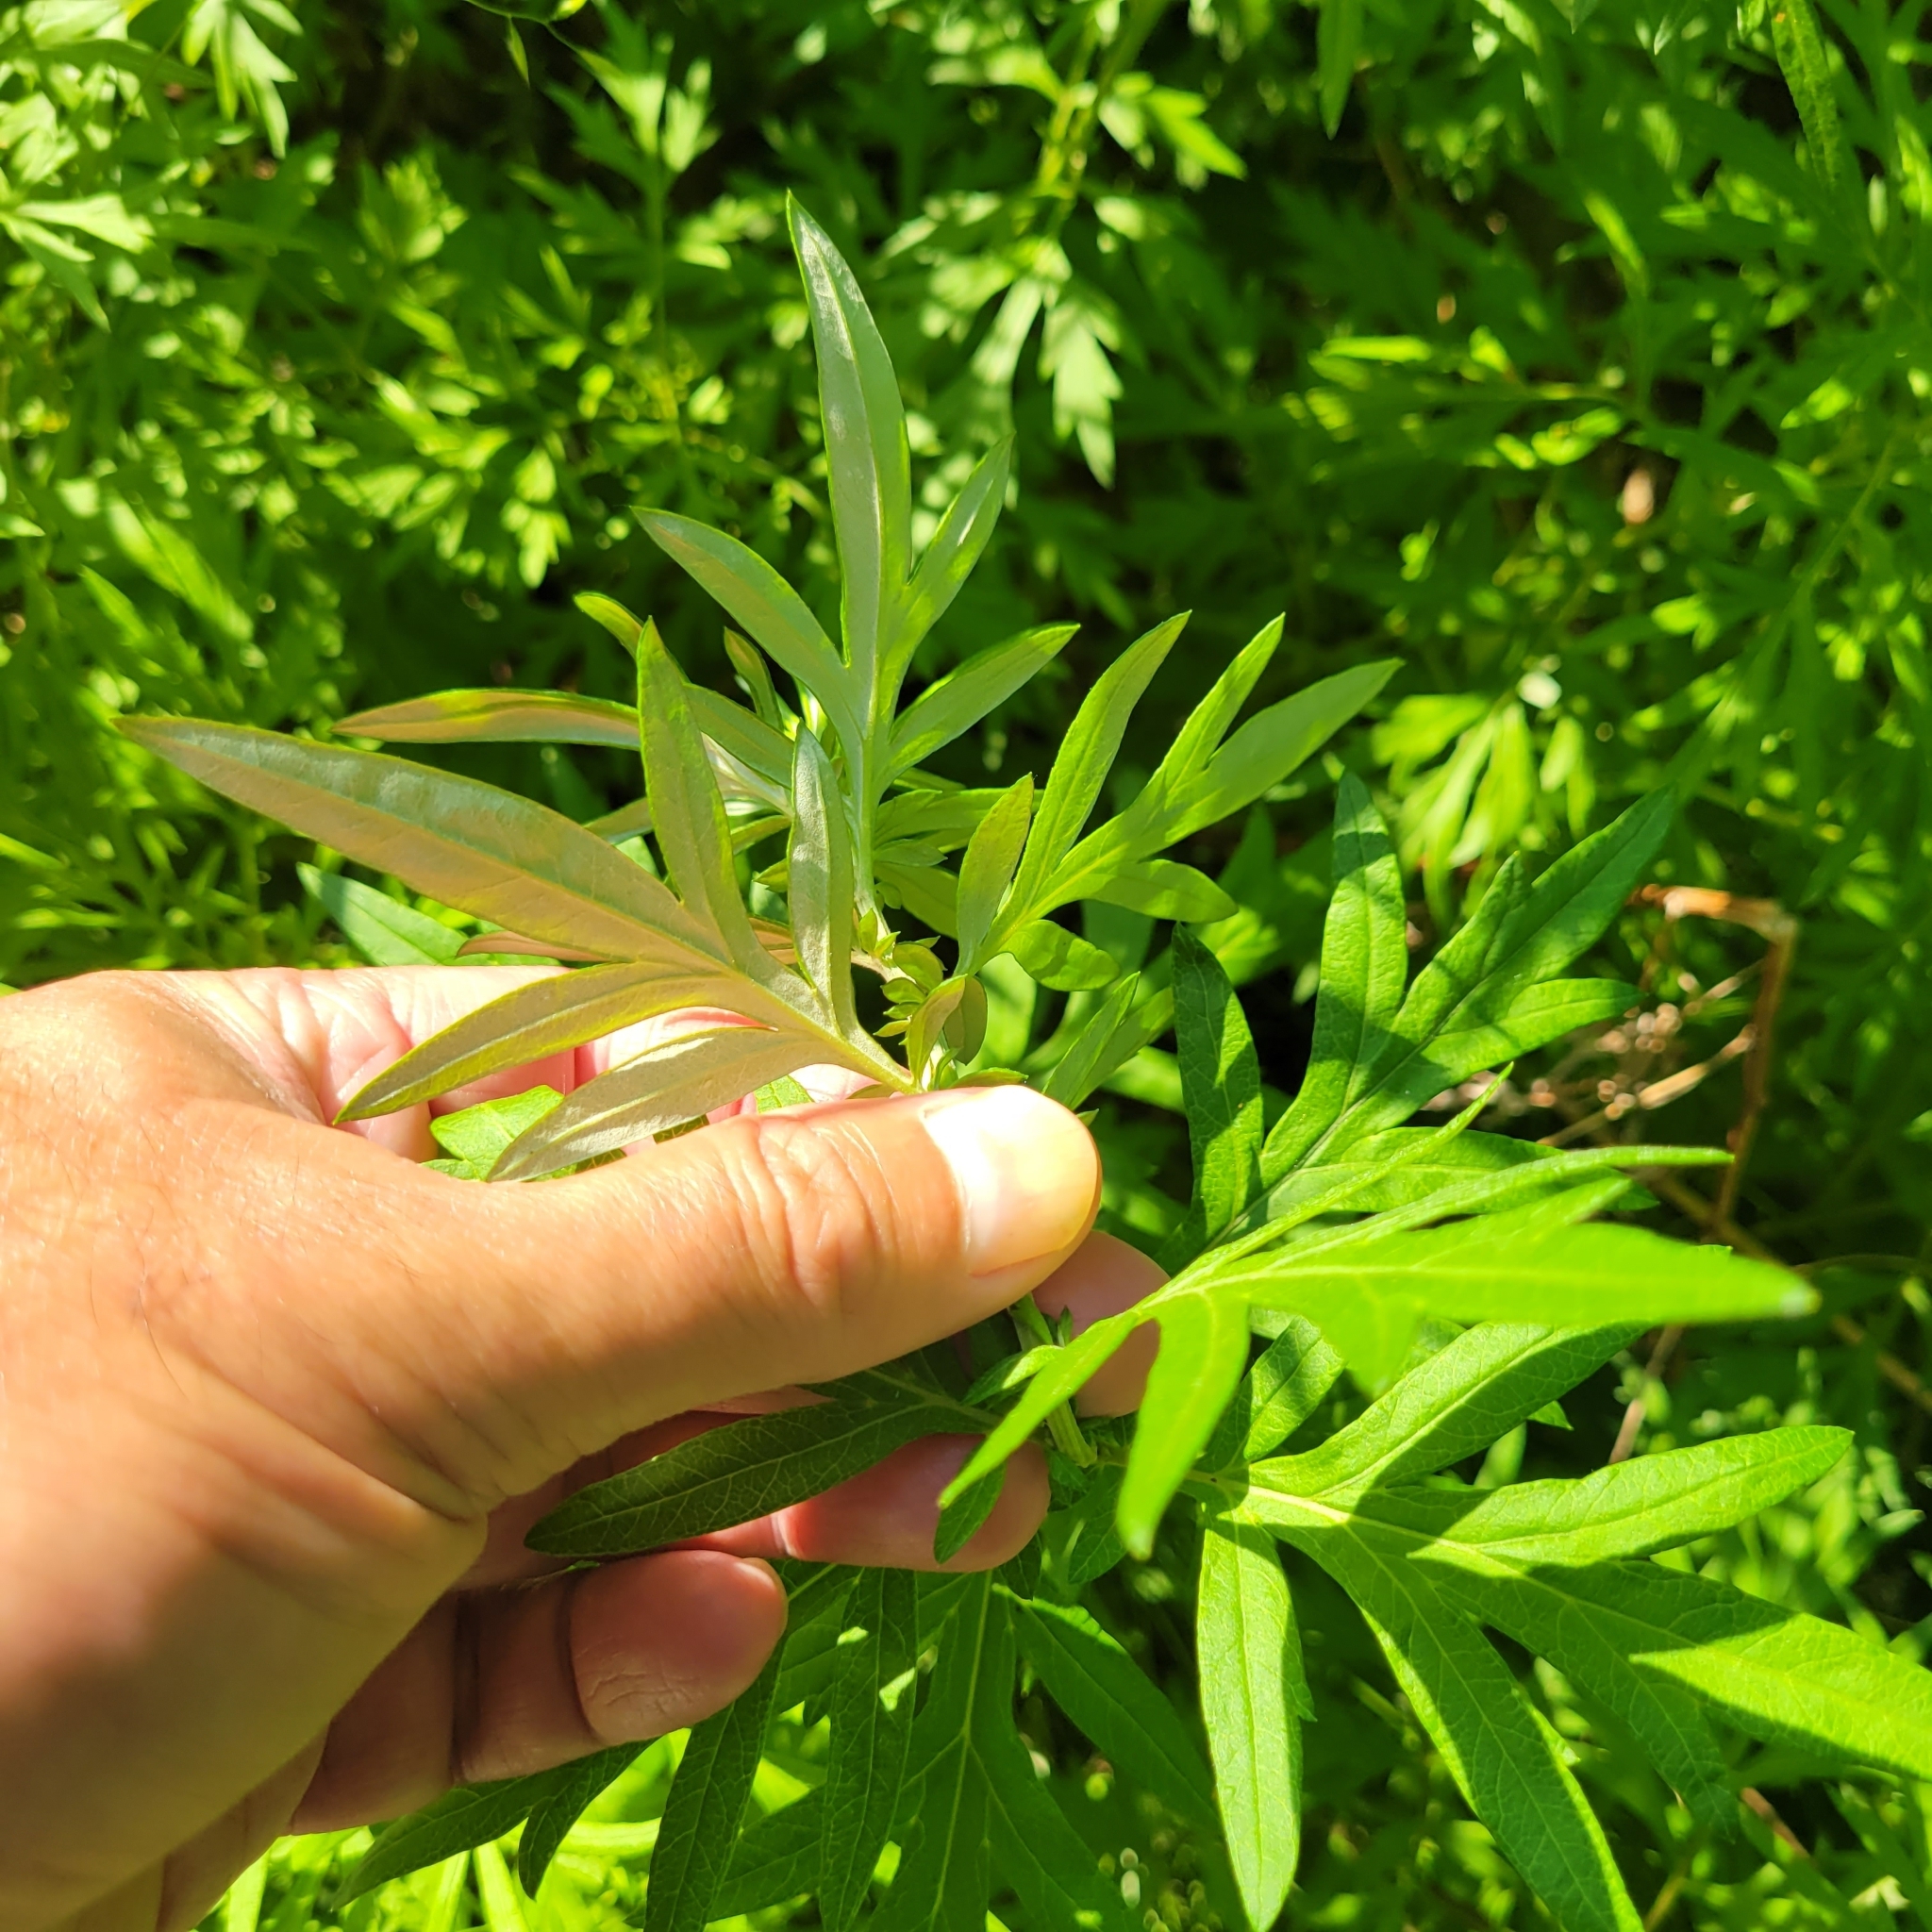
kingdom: Plantae
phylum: Tracheophyta
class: Magnoliopsida
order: Asterales
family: Asteraceae
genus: Artemisia
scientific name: Artemisia vulgaris
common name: Mugwort
